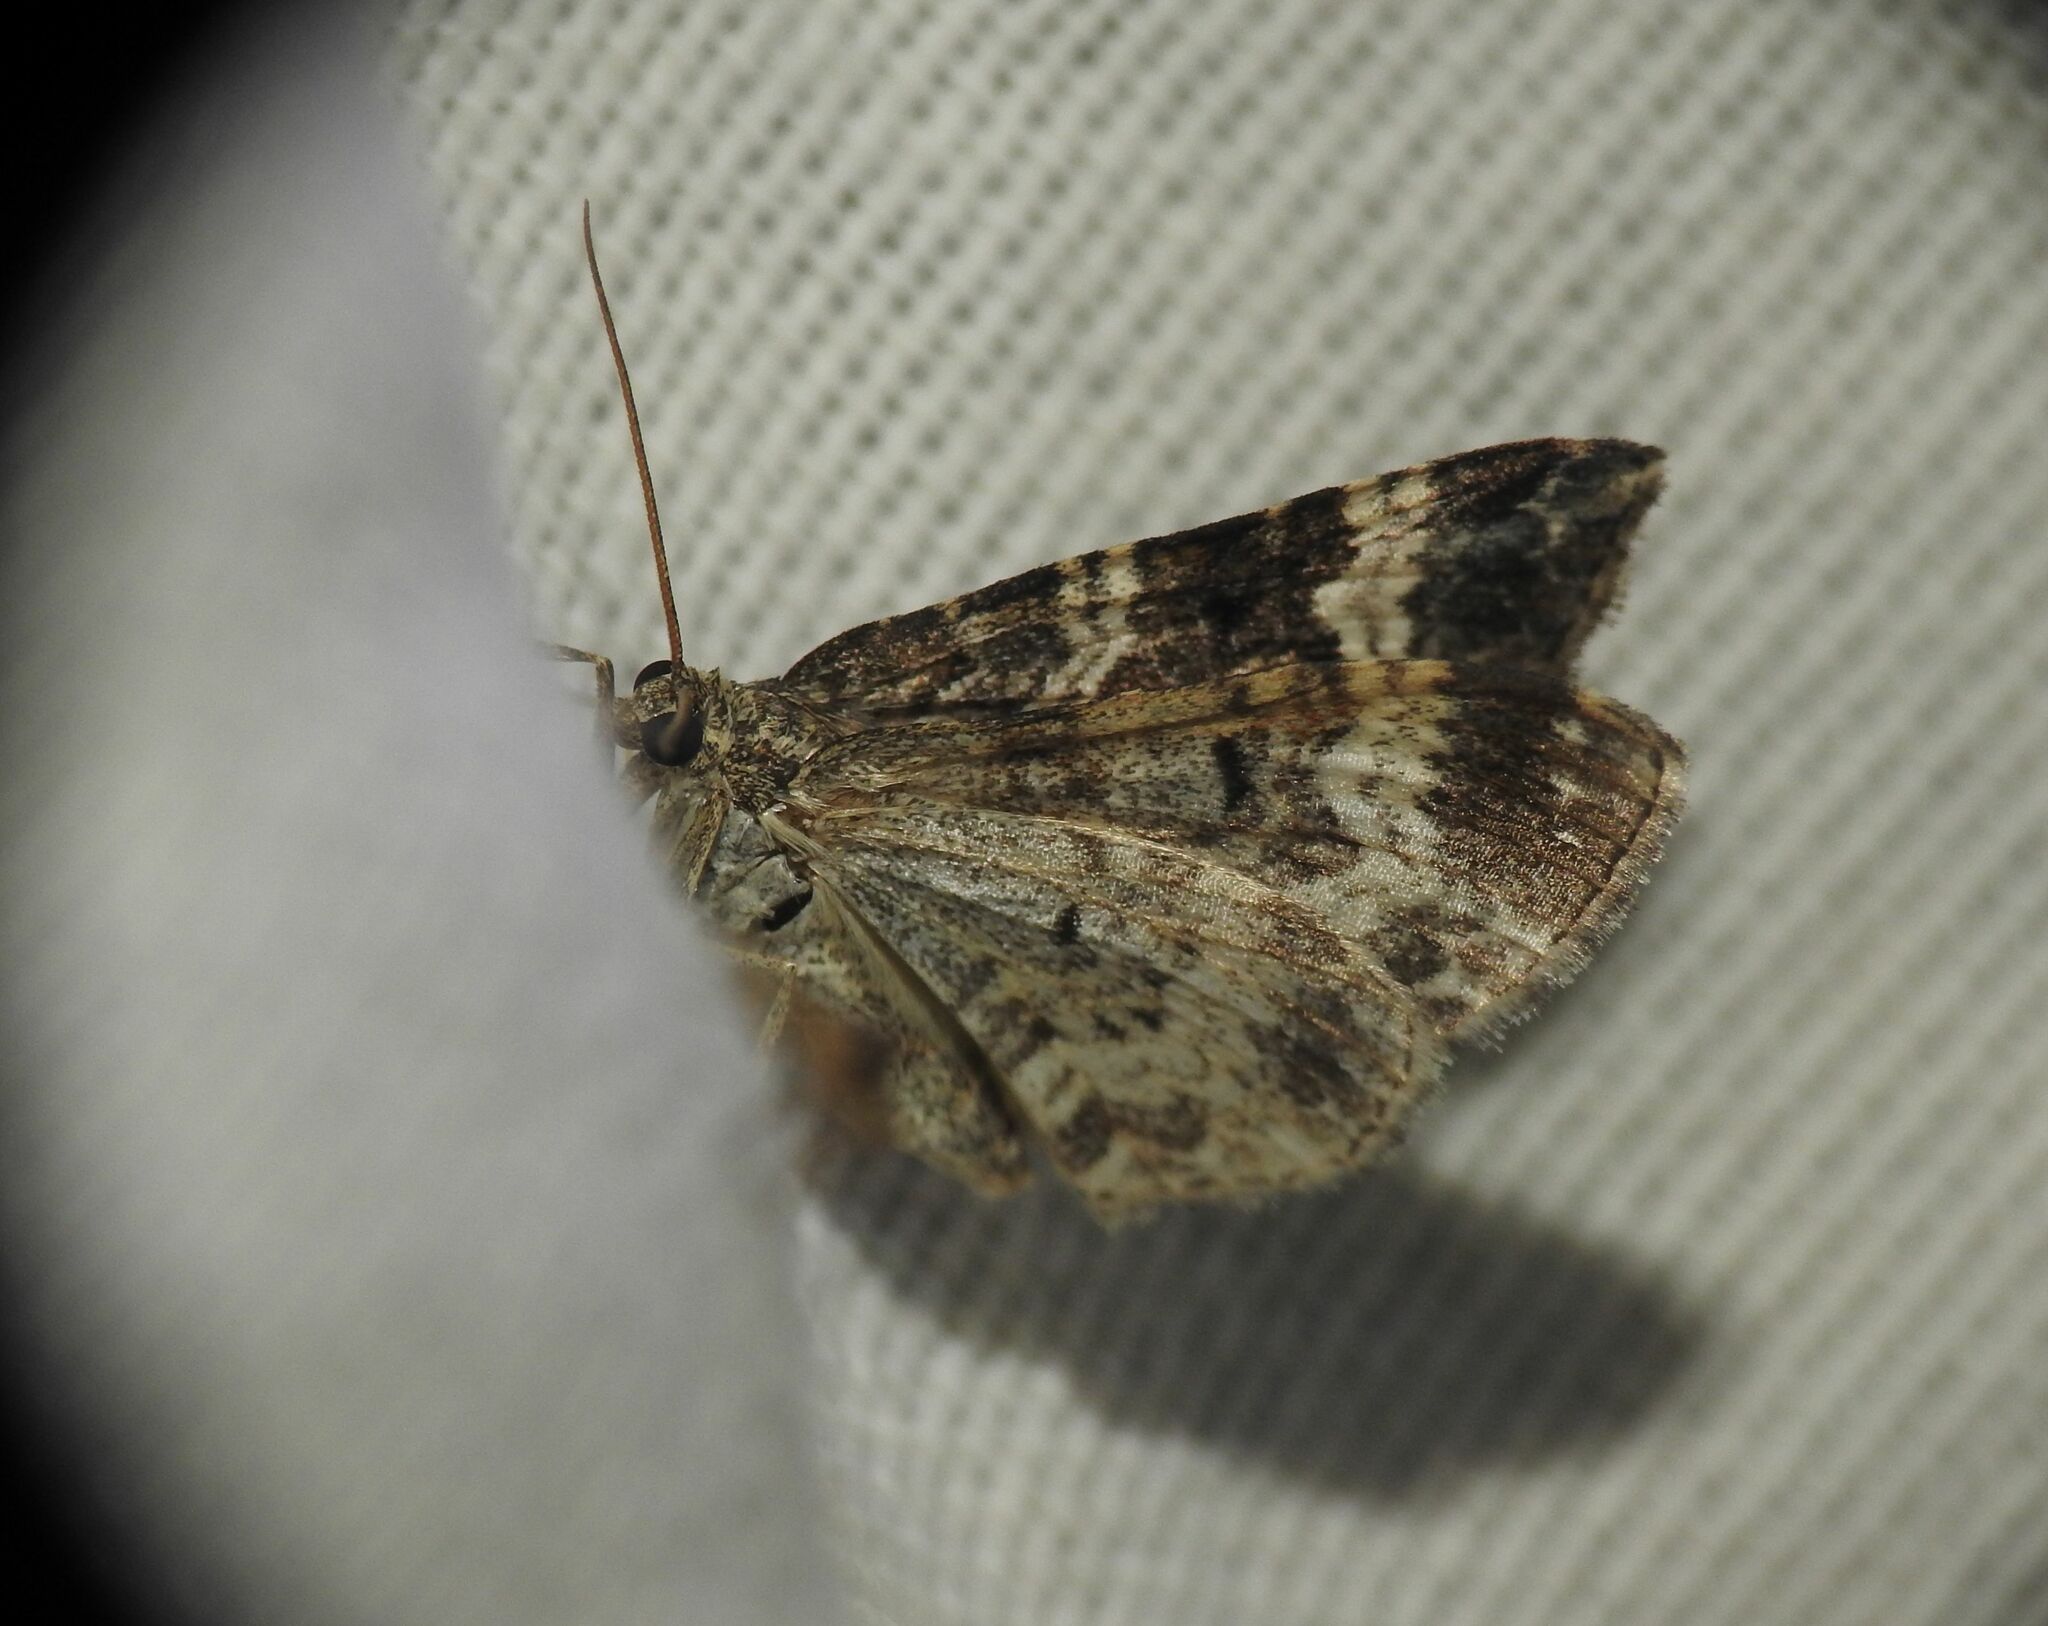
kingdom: Animalia
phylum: Arthropoda
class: Insecta
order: Lepidoptera
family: Geometridae
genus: Epirrhoe
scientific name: Epirrhoe alternata
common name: Common carpet
